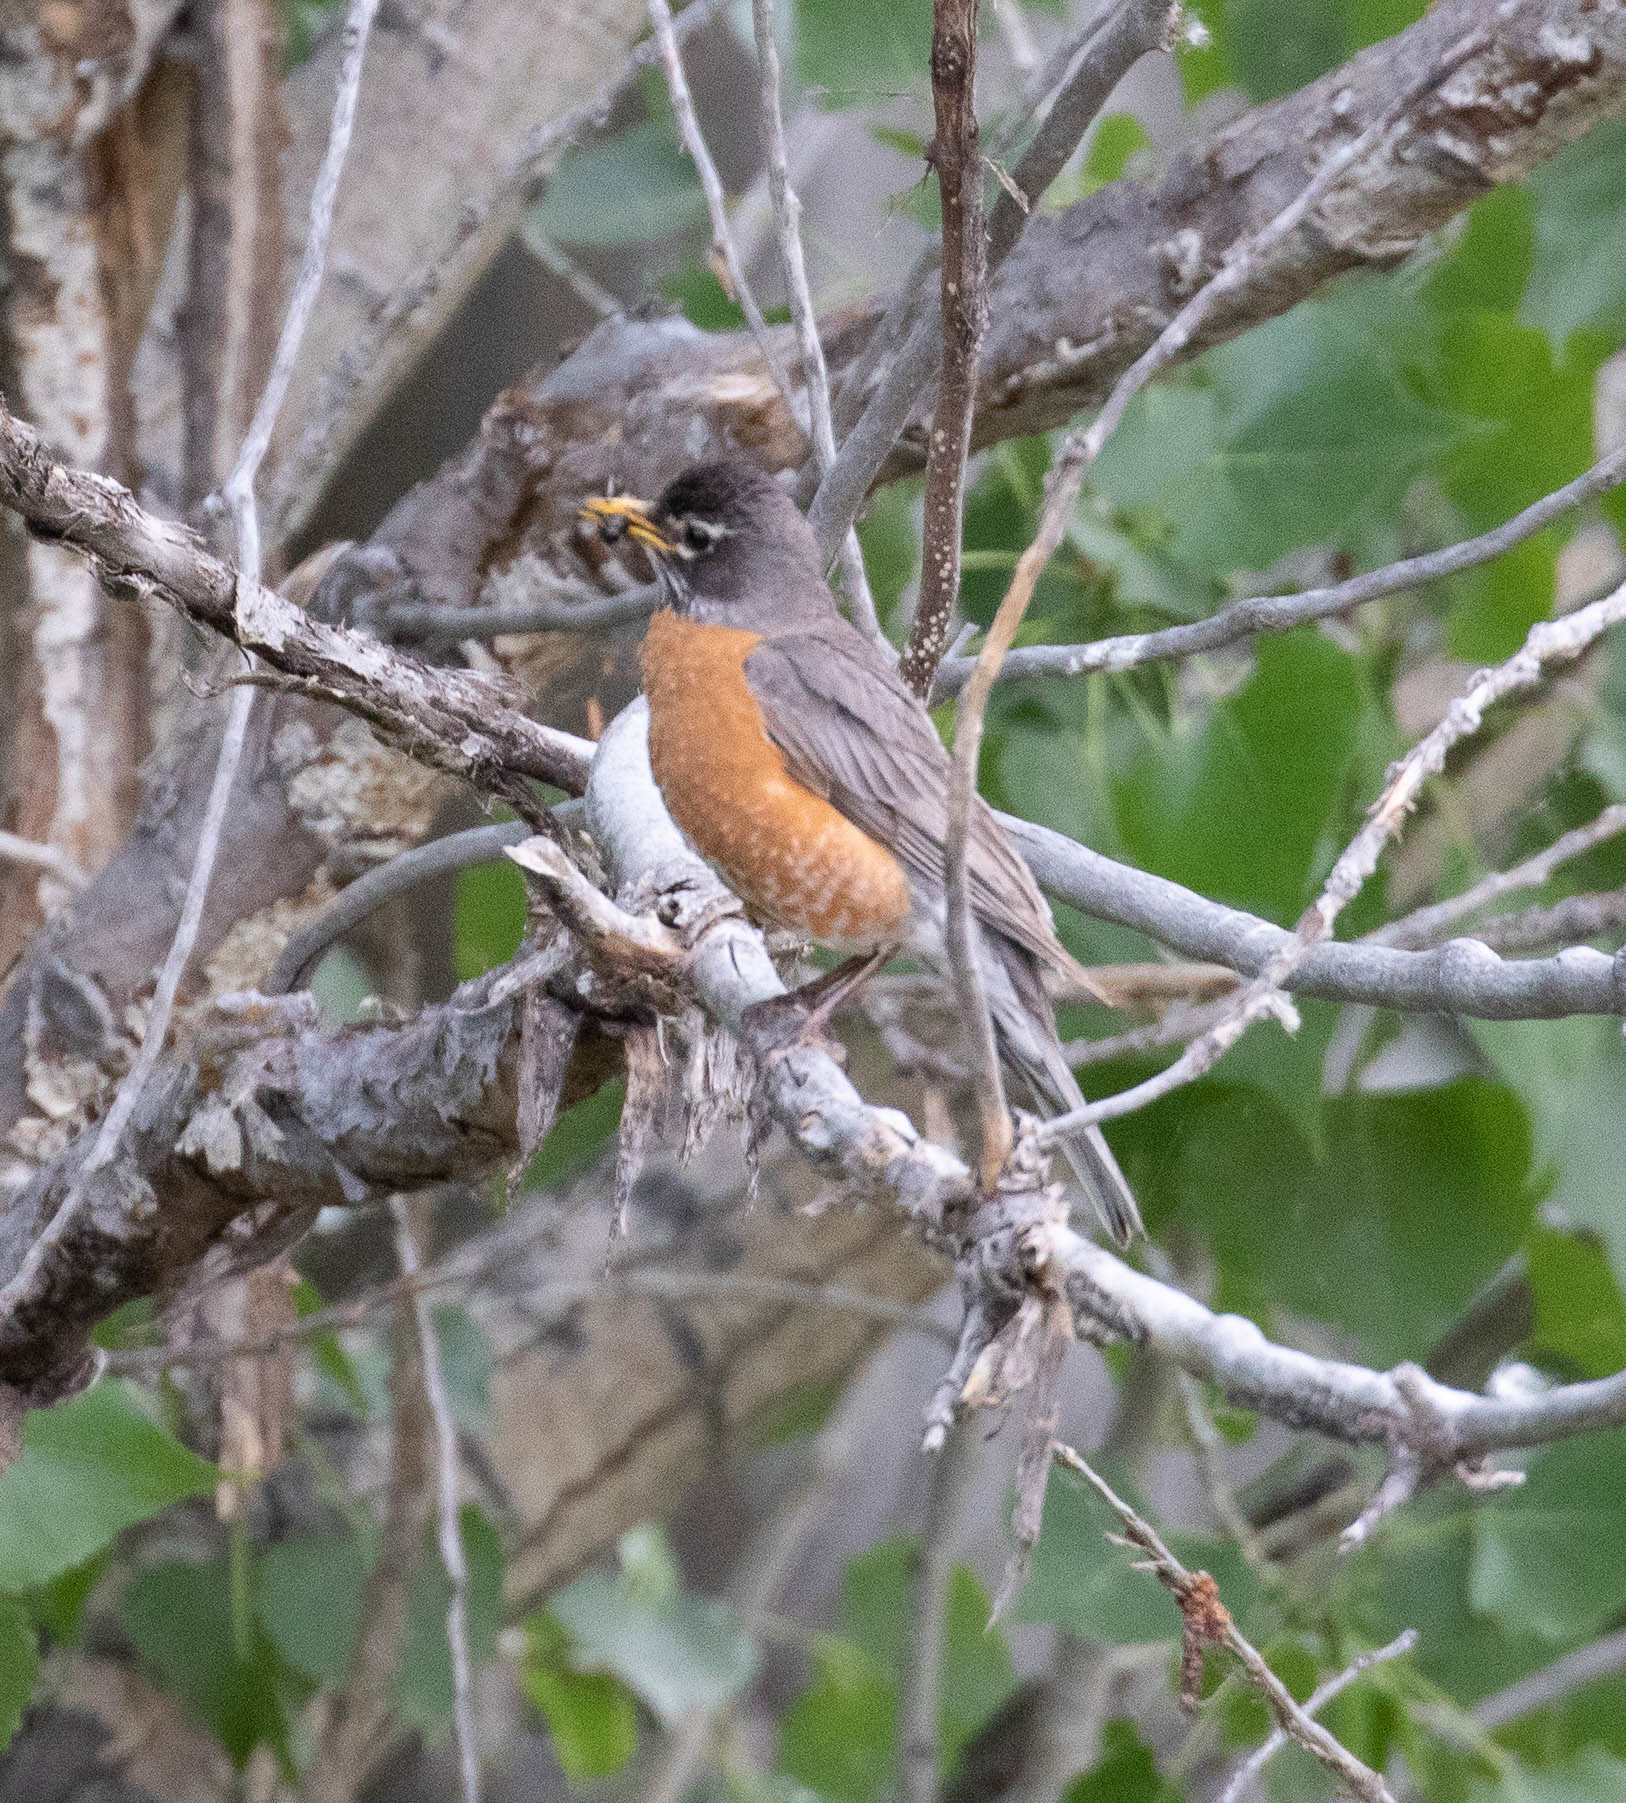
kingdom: Animalia
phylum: Chordata
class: Aves
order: Passeriformes
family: Turdidae
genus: Turdus
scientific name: Turdus migratorius
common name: American robin
